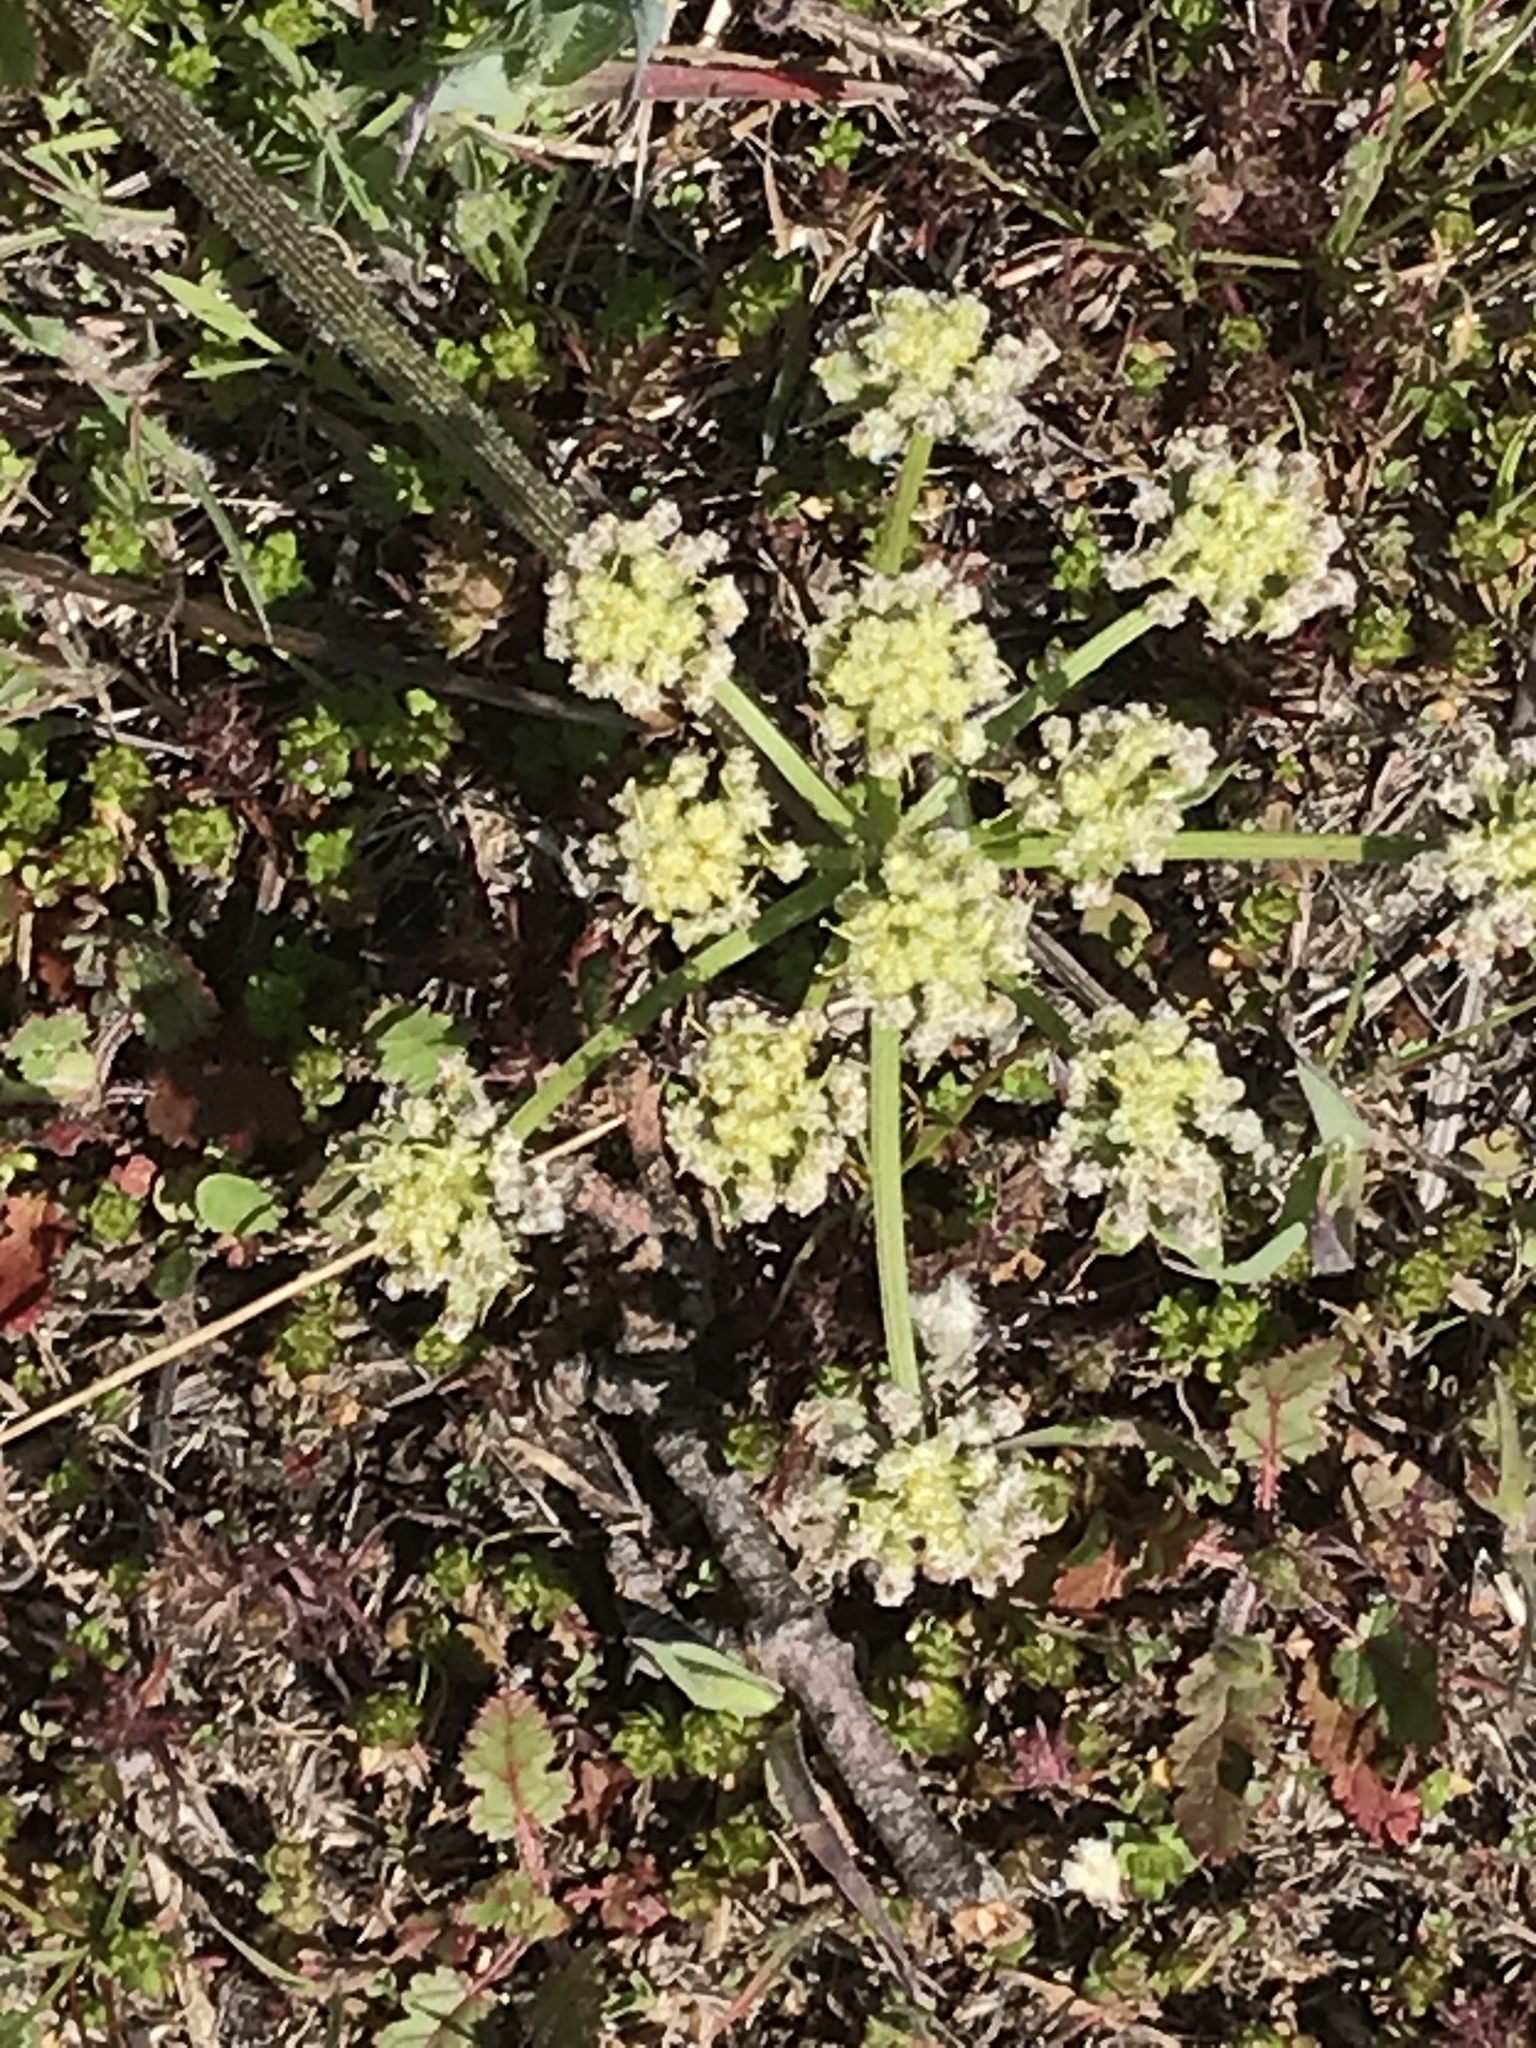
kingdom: Plantae
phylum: Tracheophyta
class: Magnoliopsida
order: Apiales
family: Apiaceae
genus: Lomatium
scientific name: Lomatium dasycarpum
